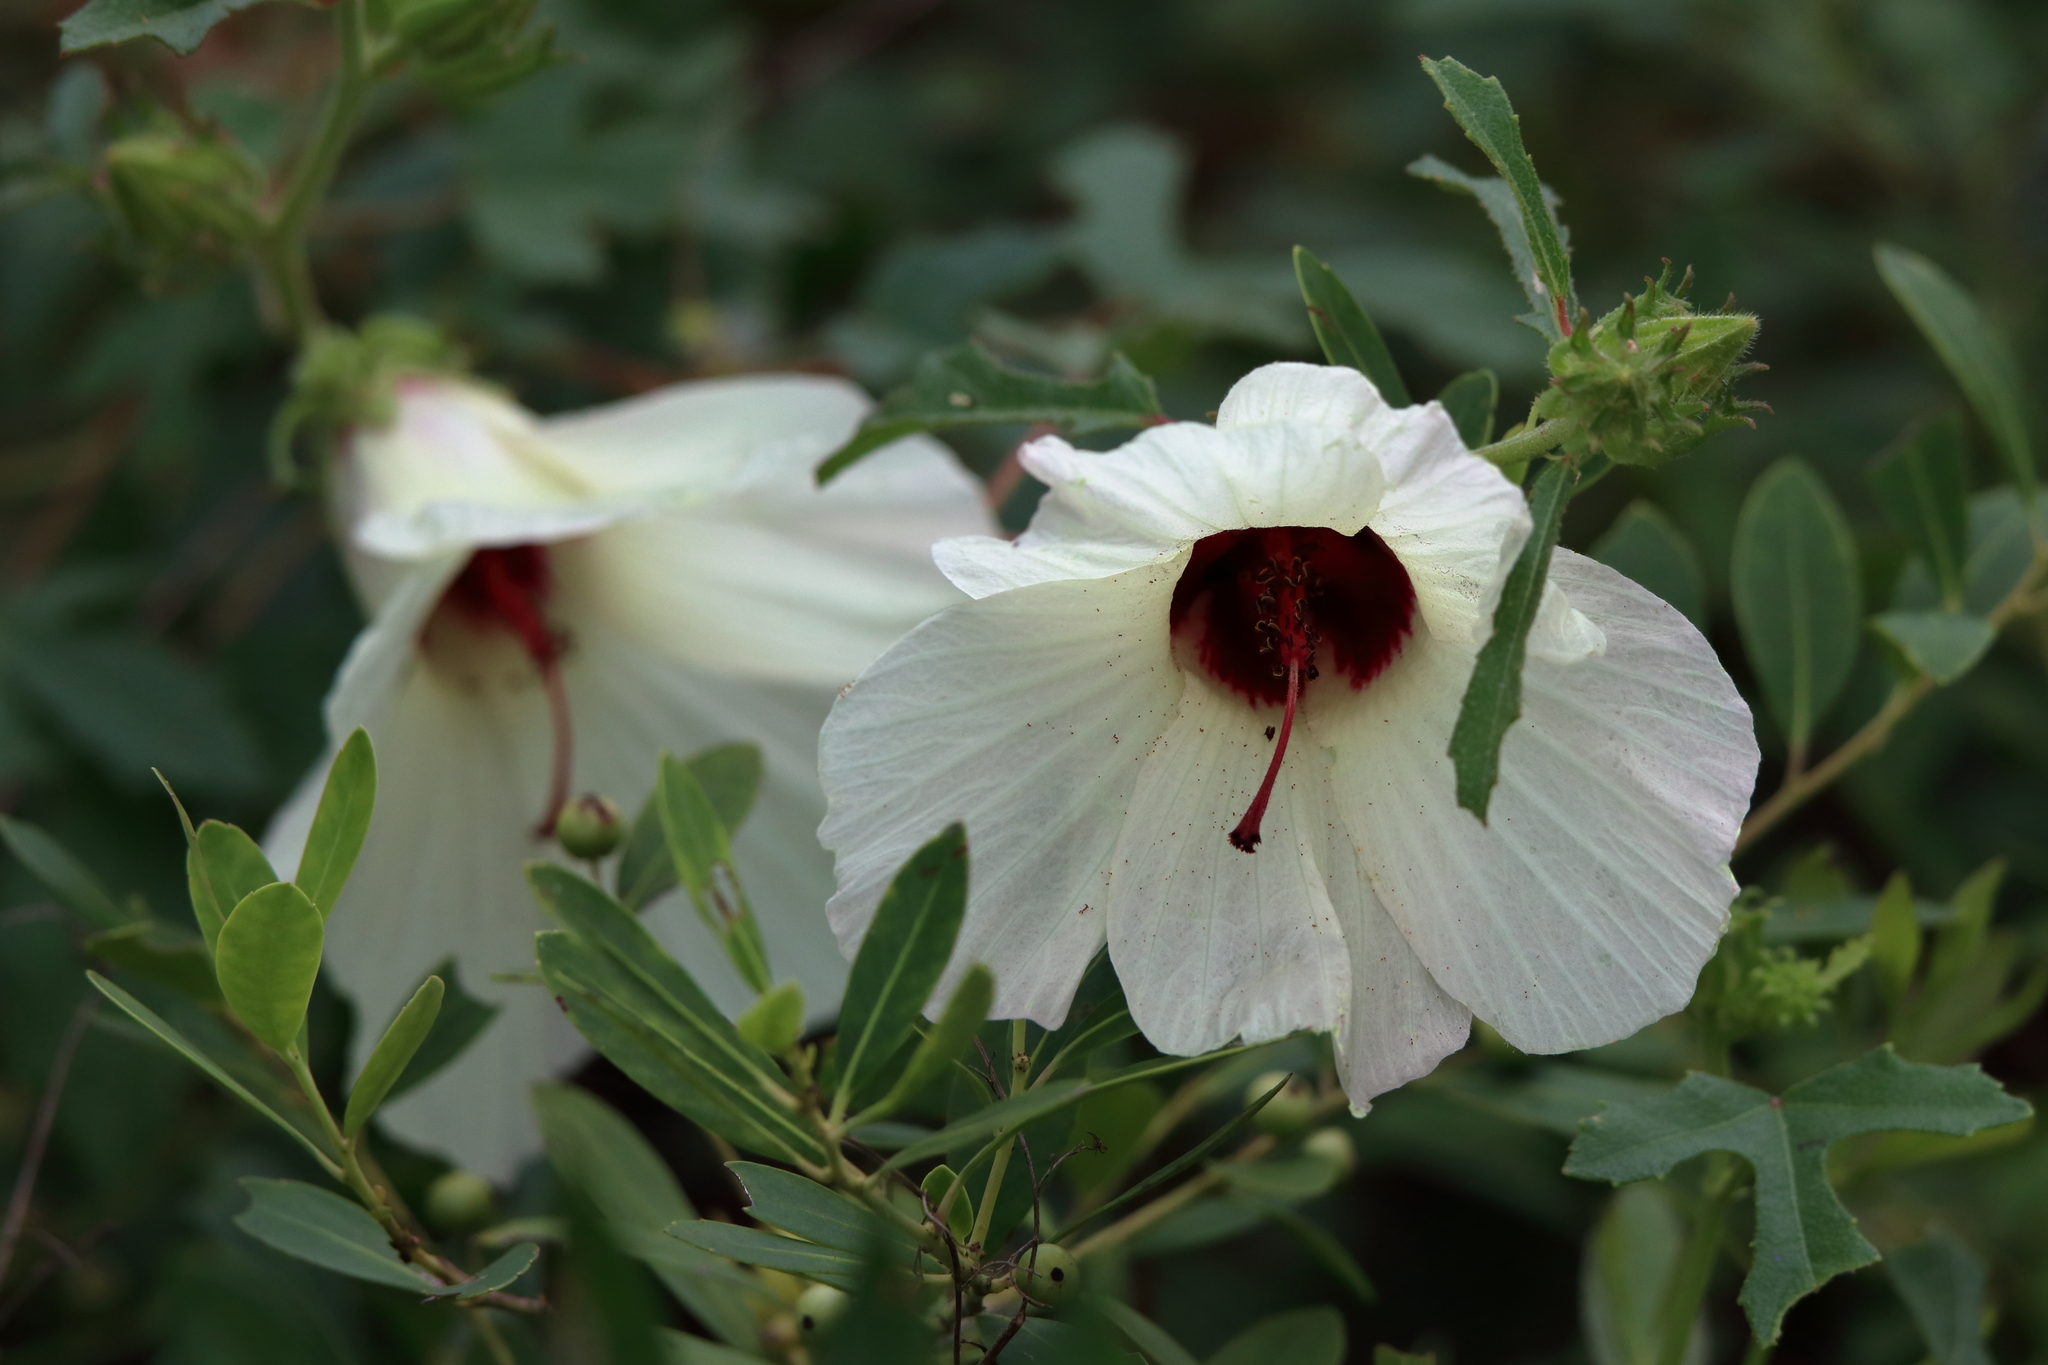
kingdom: Plantae
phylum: Tracheophyta
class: Magnoliopsida
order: Malvales
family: Malvaceae
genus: Hibiscus
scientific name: Hibiscus aculeatus
